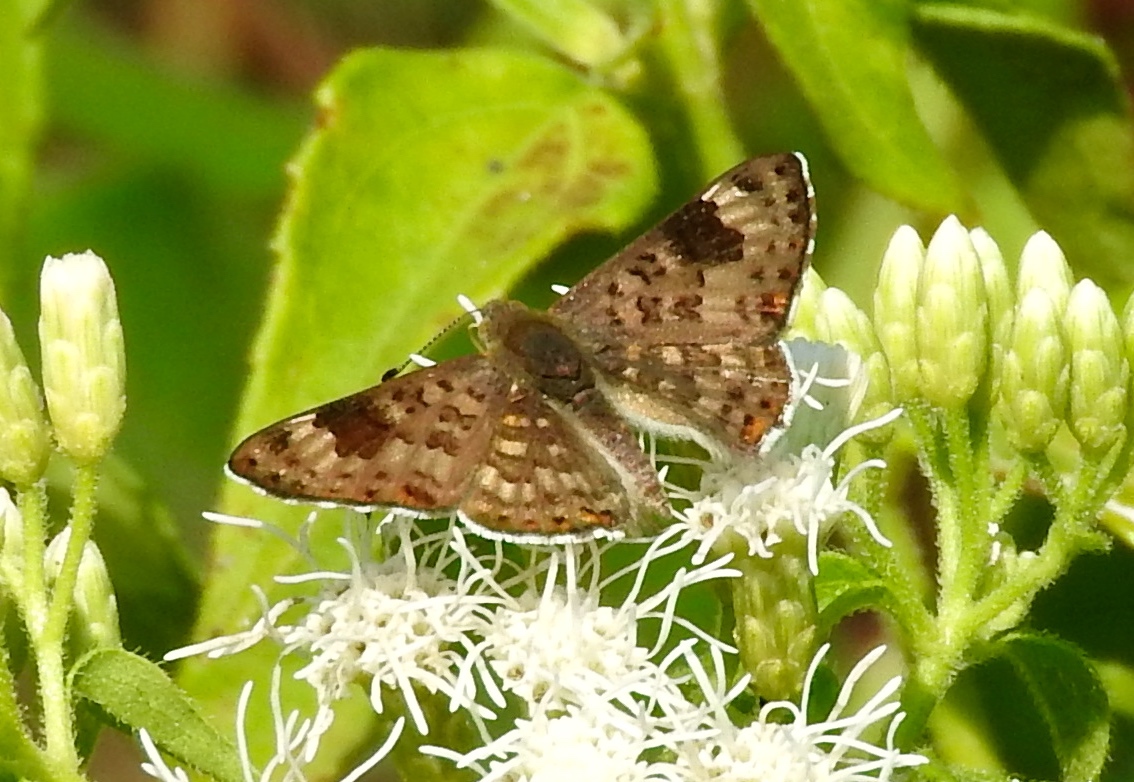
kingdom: Animalia
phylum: Arthropoda
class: Insecta
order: Lepidoptera
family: Riodinidae
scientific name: Riodinidae
